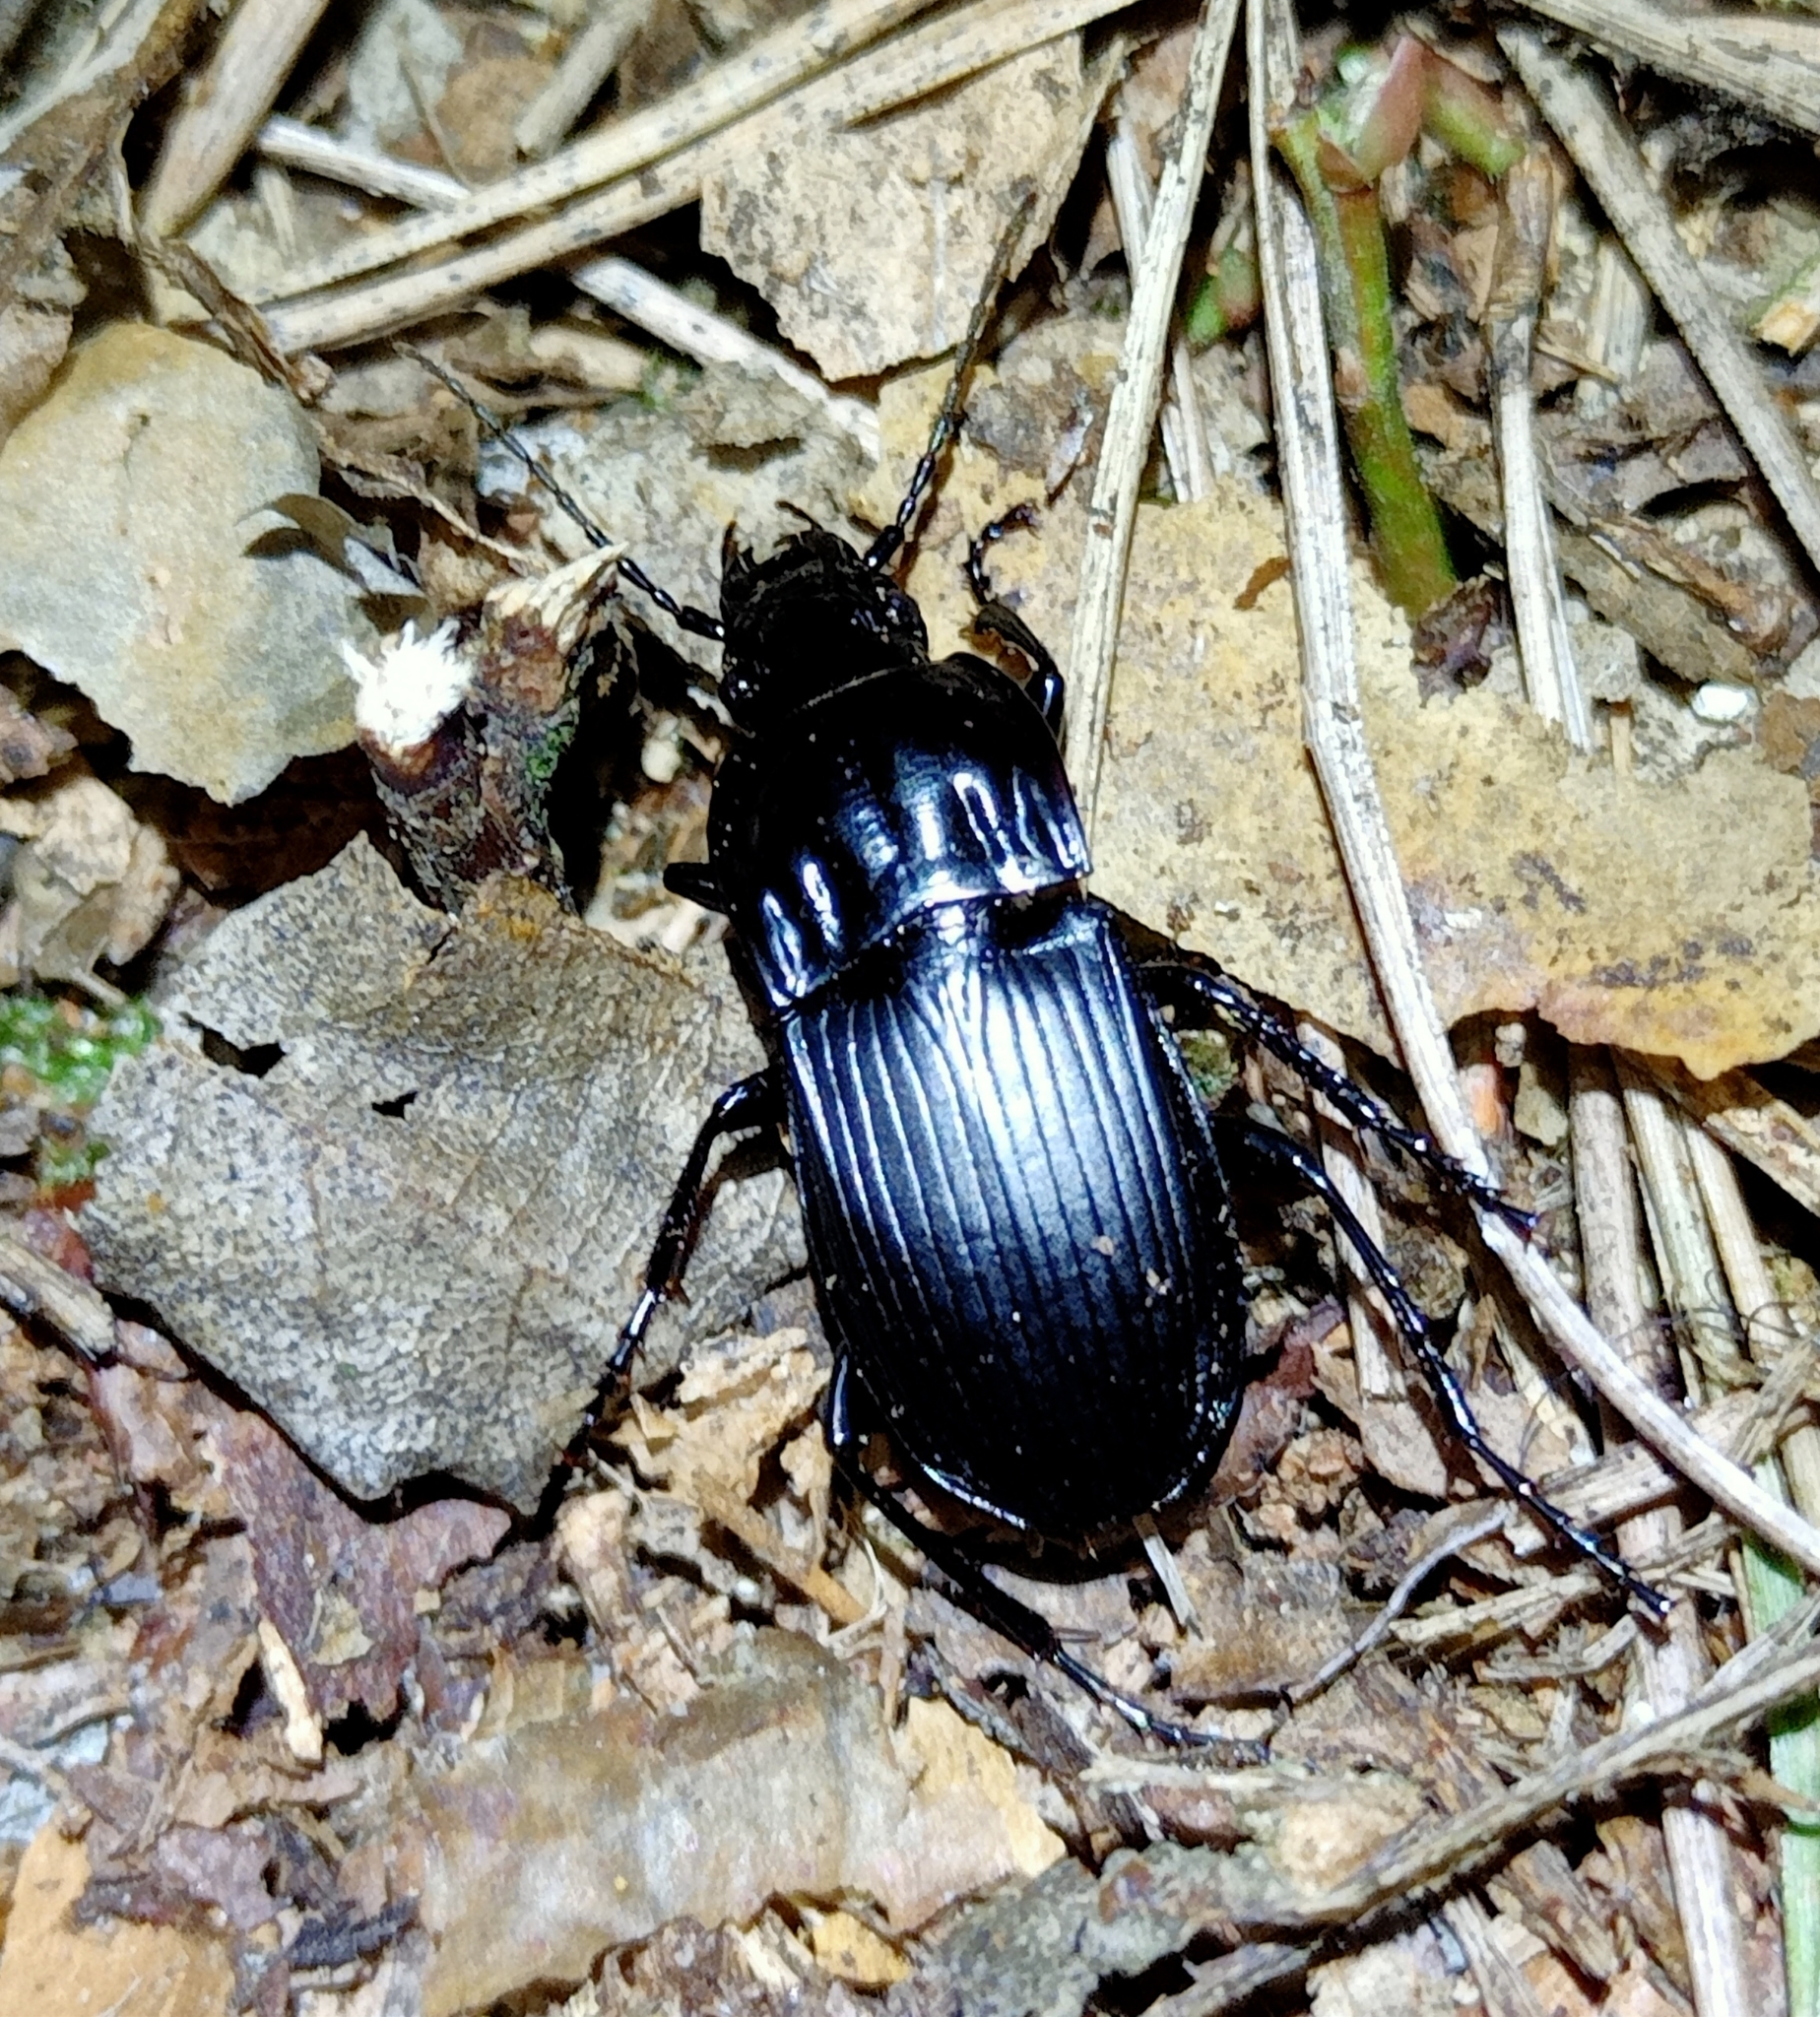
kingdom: Animalia
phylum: Arthropoda
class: Insecta
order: Coleoptera
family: Carabidae
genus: Abax
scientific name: Abax parallelepipedus
